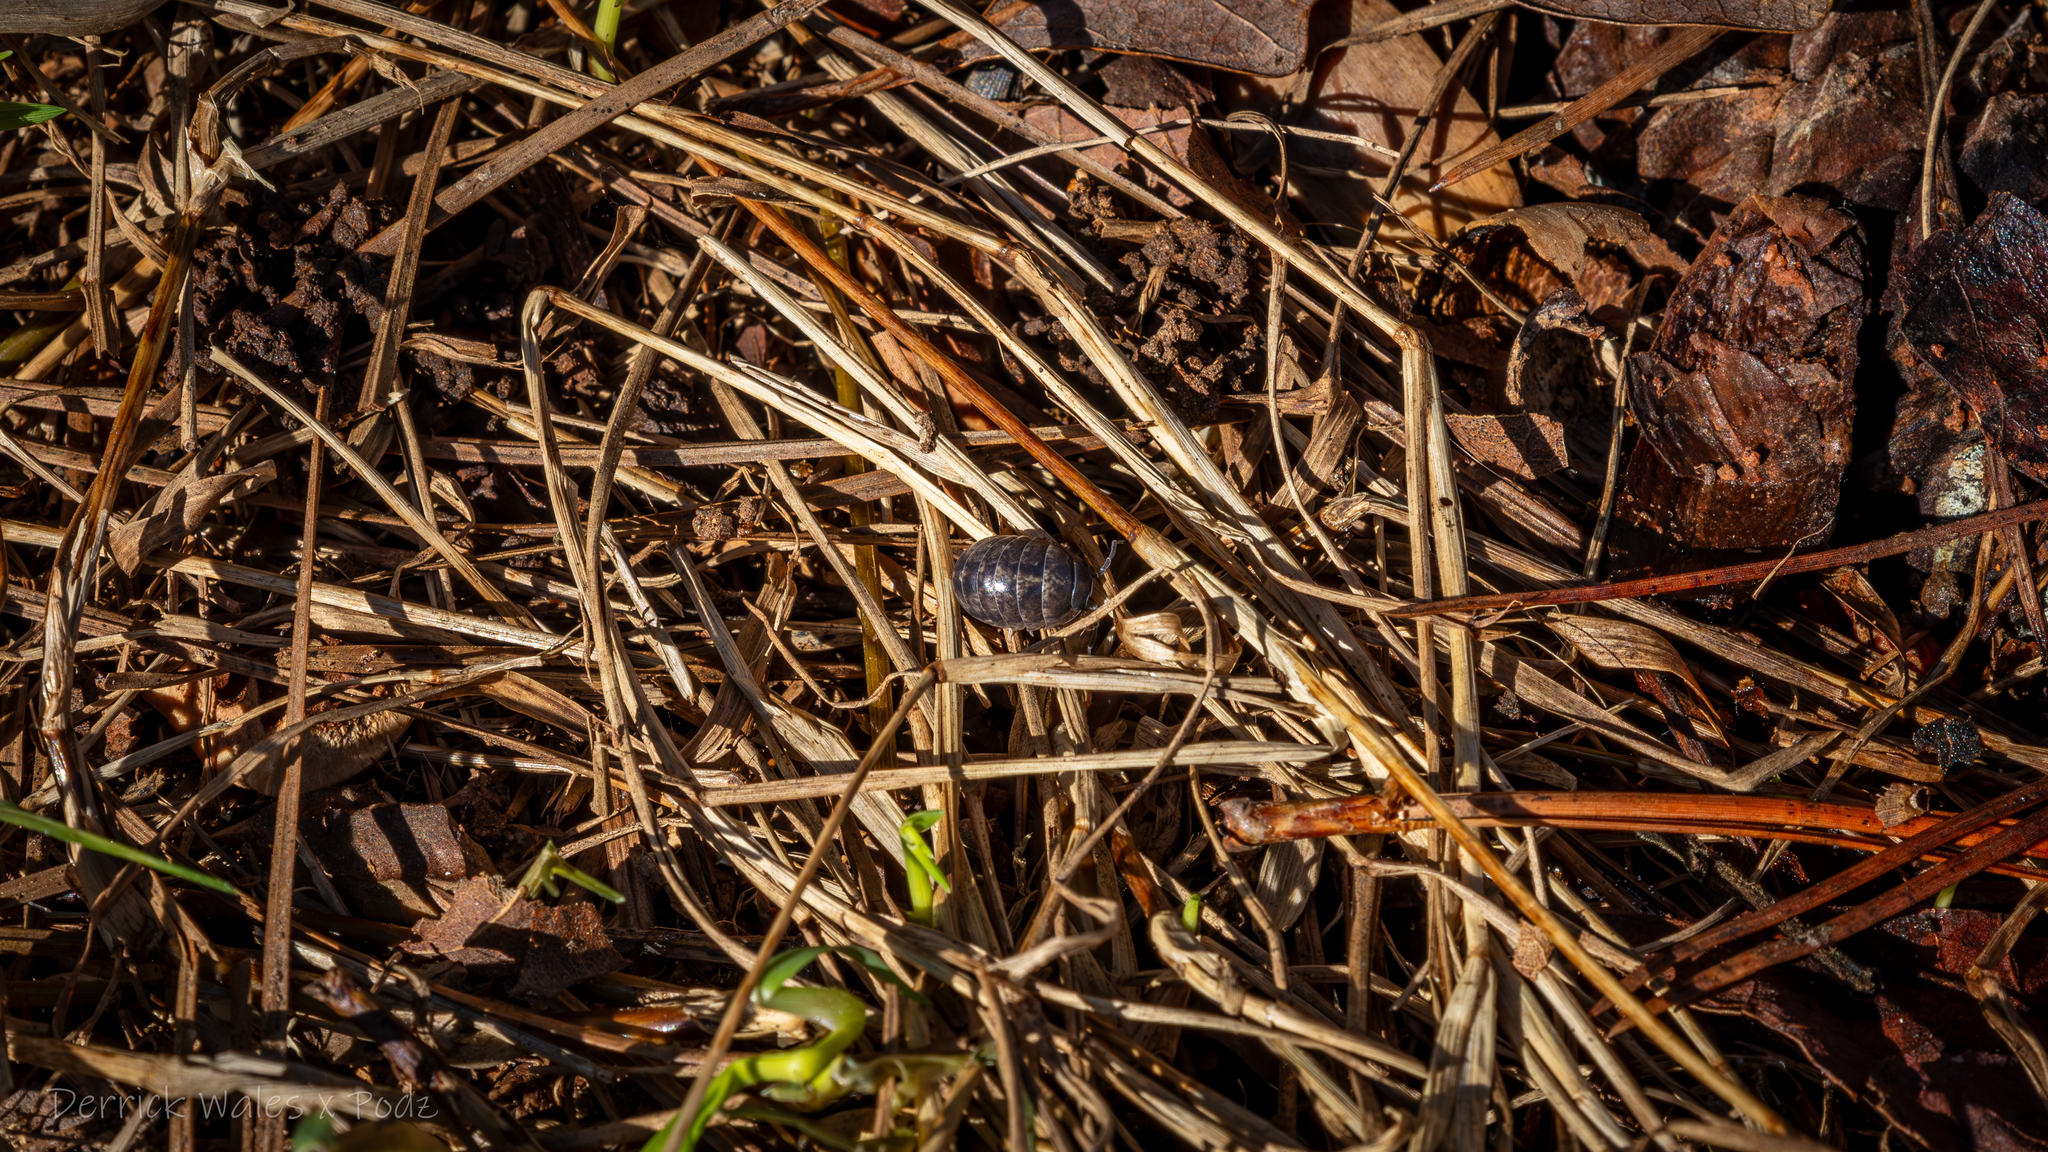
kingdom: Animalia
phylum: Arthropoda
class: Malacostraca
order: Isopoda
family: Armadillidiidae
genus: Armadillidium
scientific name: Armadillidium vulgare
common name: Common pill woodlouse
